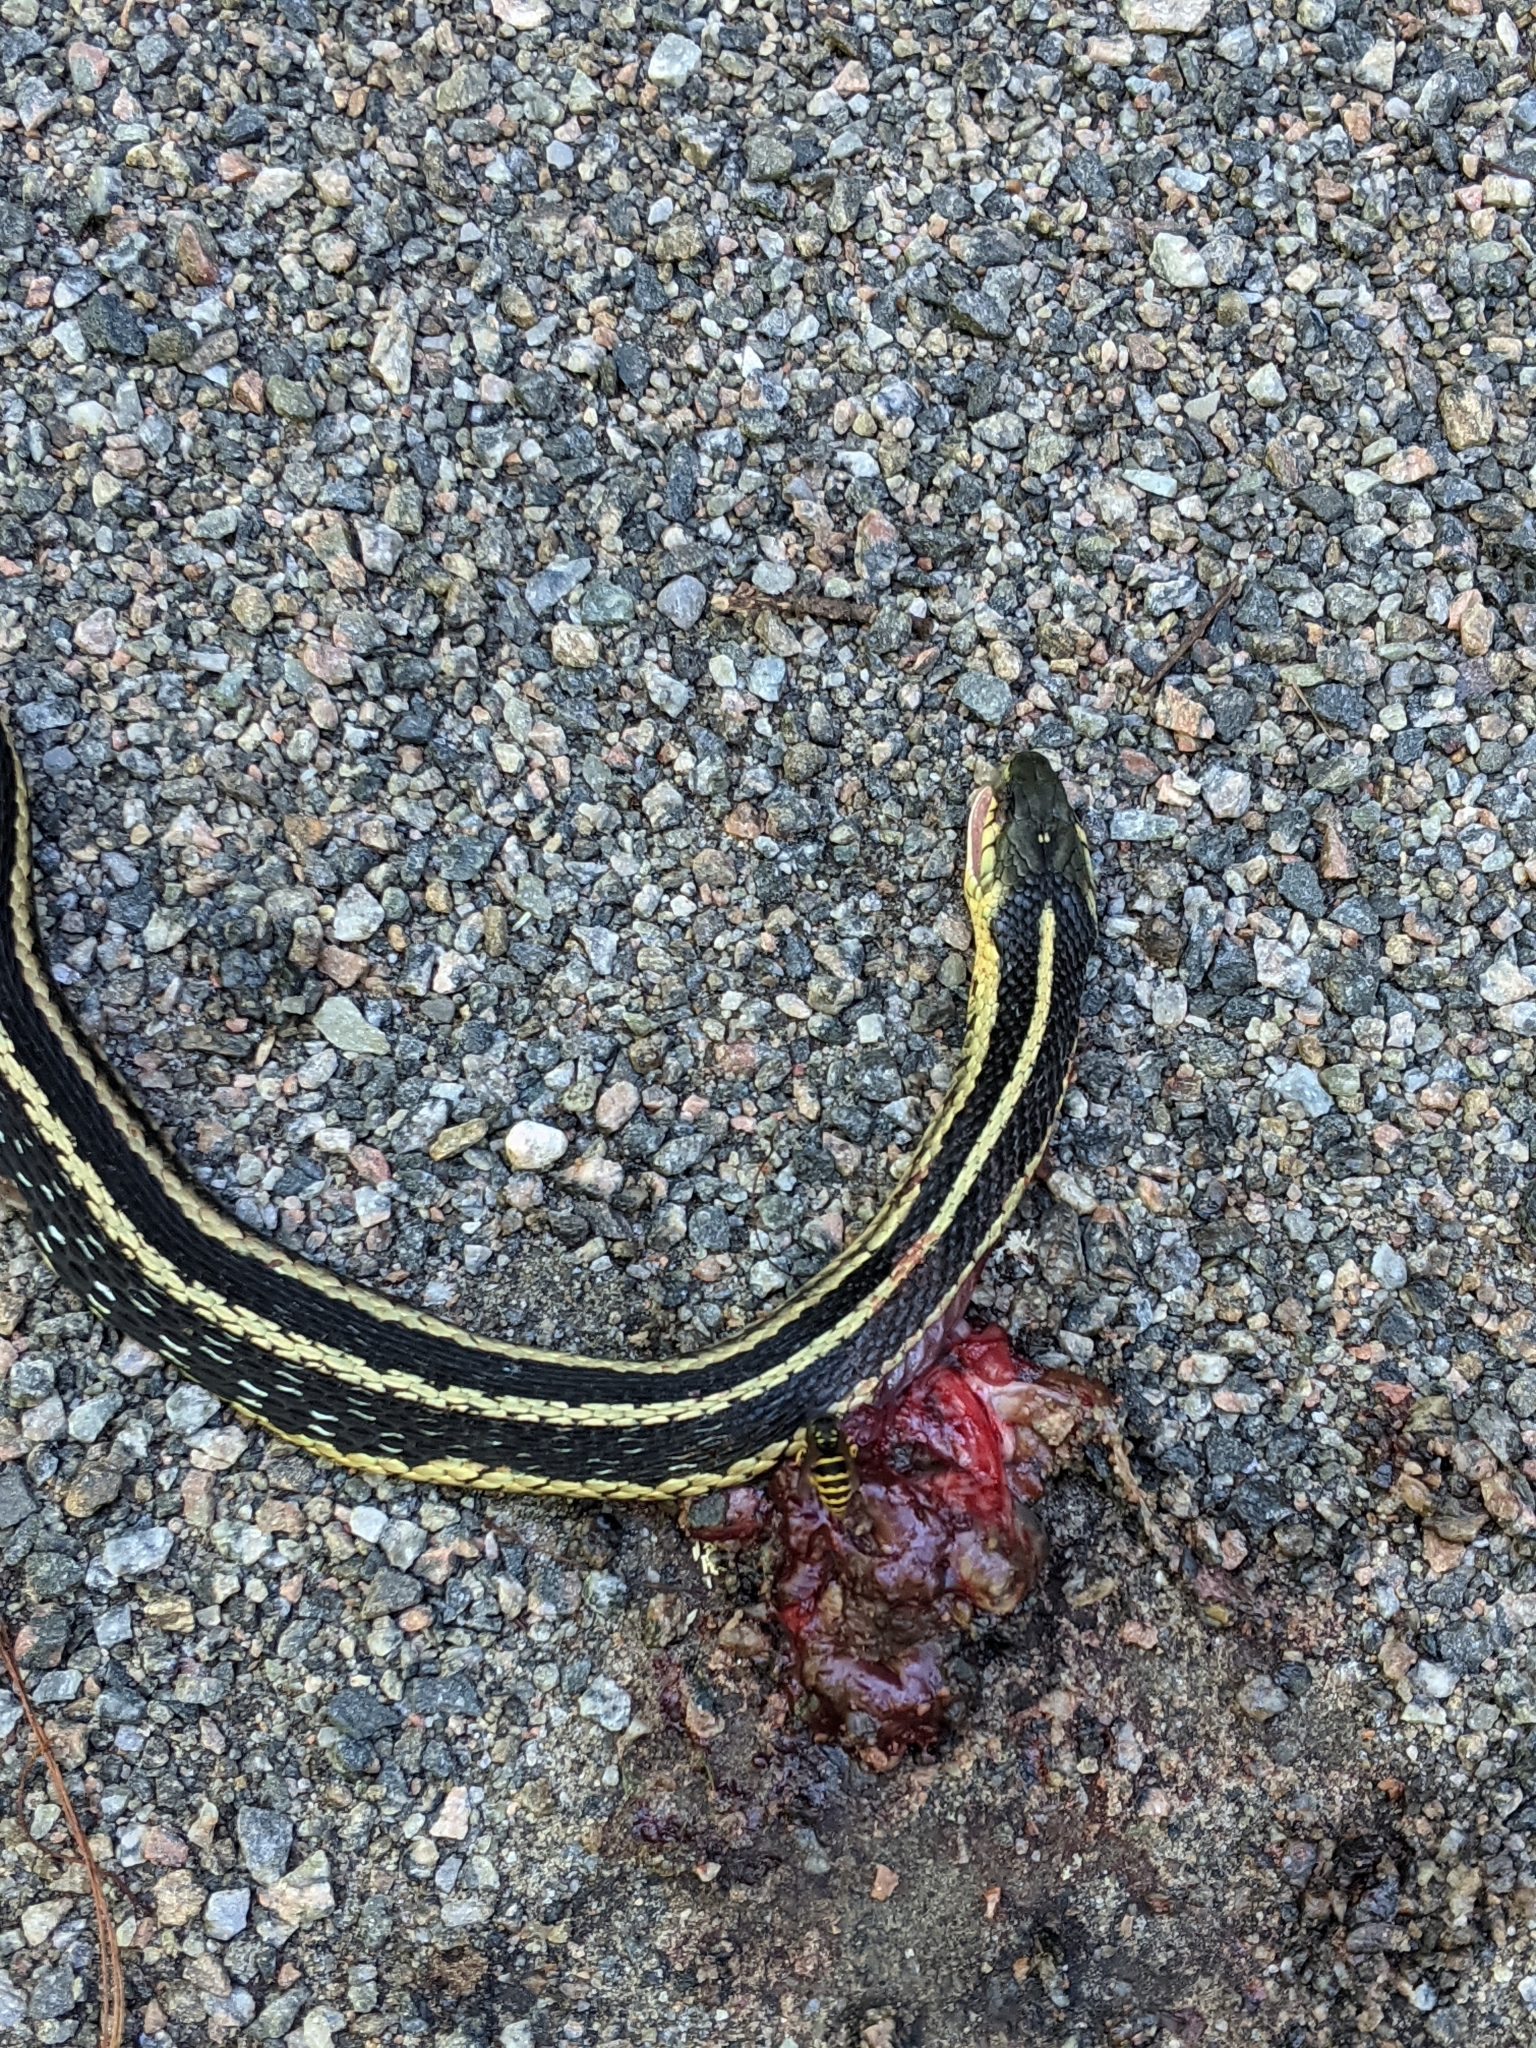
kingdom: Animalia
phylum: Chordata
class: Squamata
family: Colubridae
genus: Thamnophis
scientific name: Thamnophis sirtalis
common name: Common garter snake
